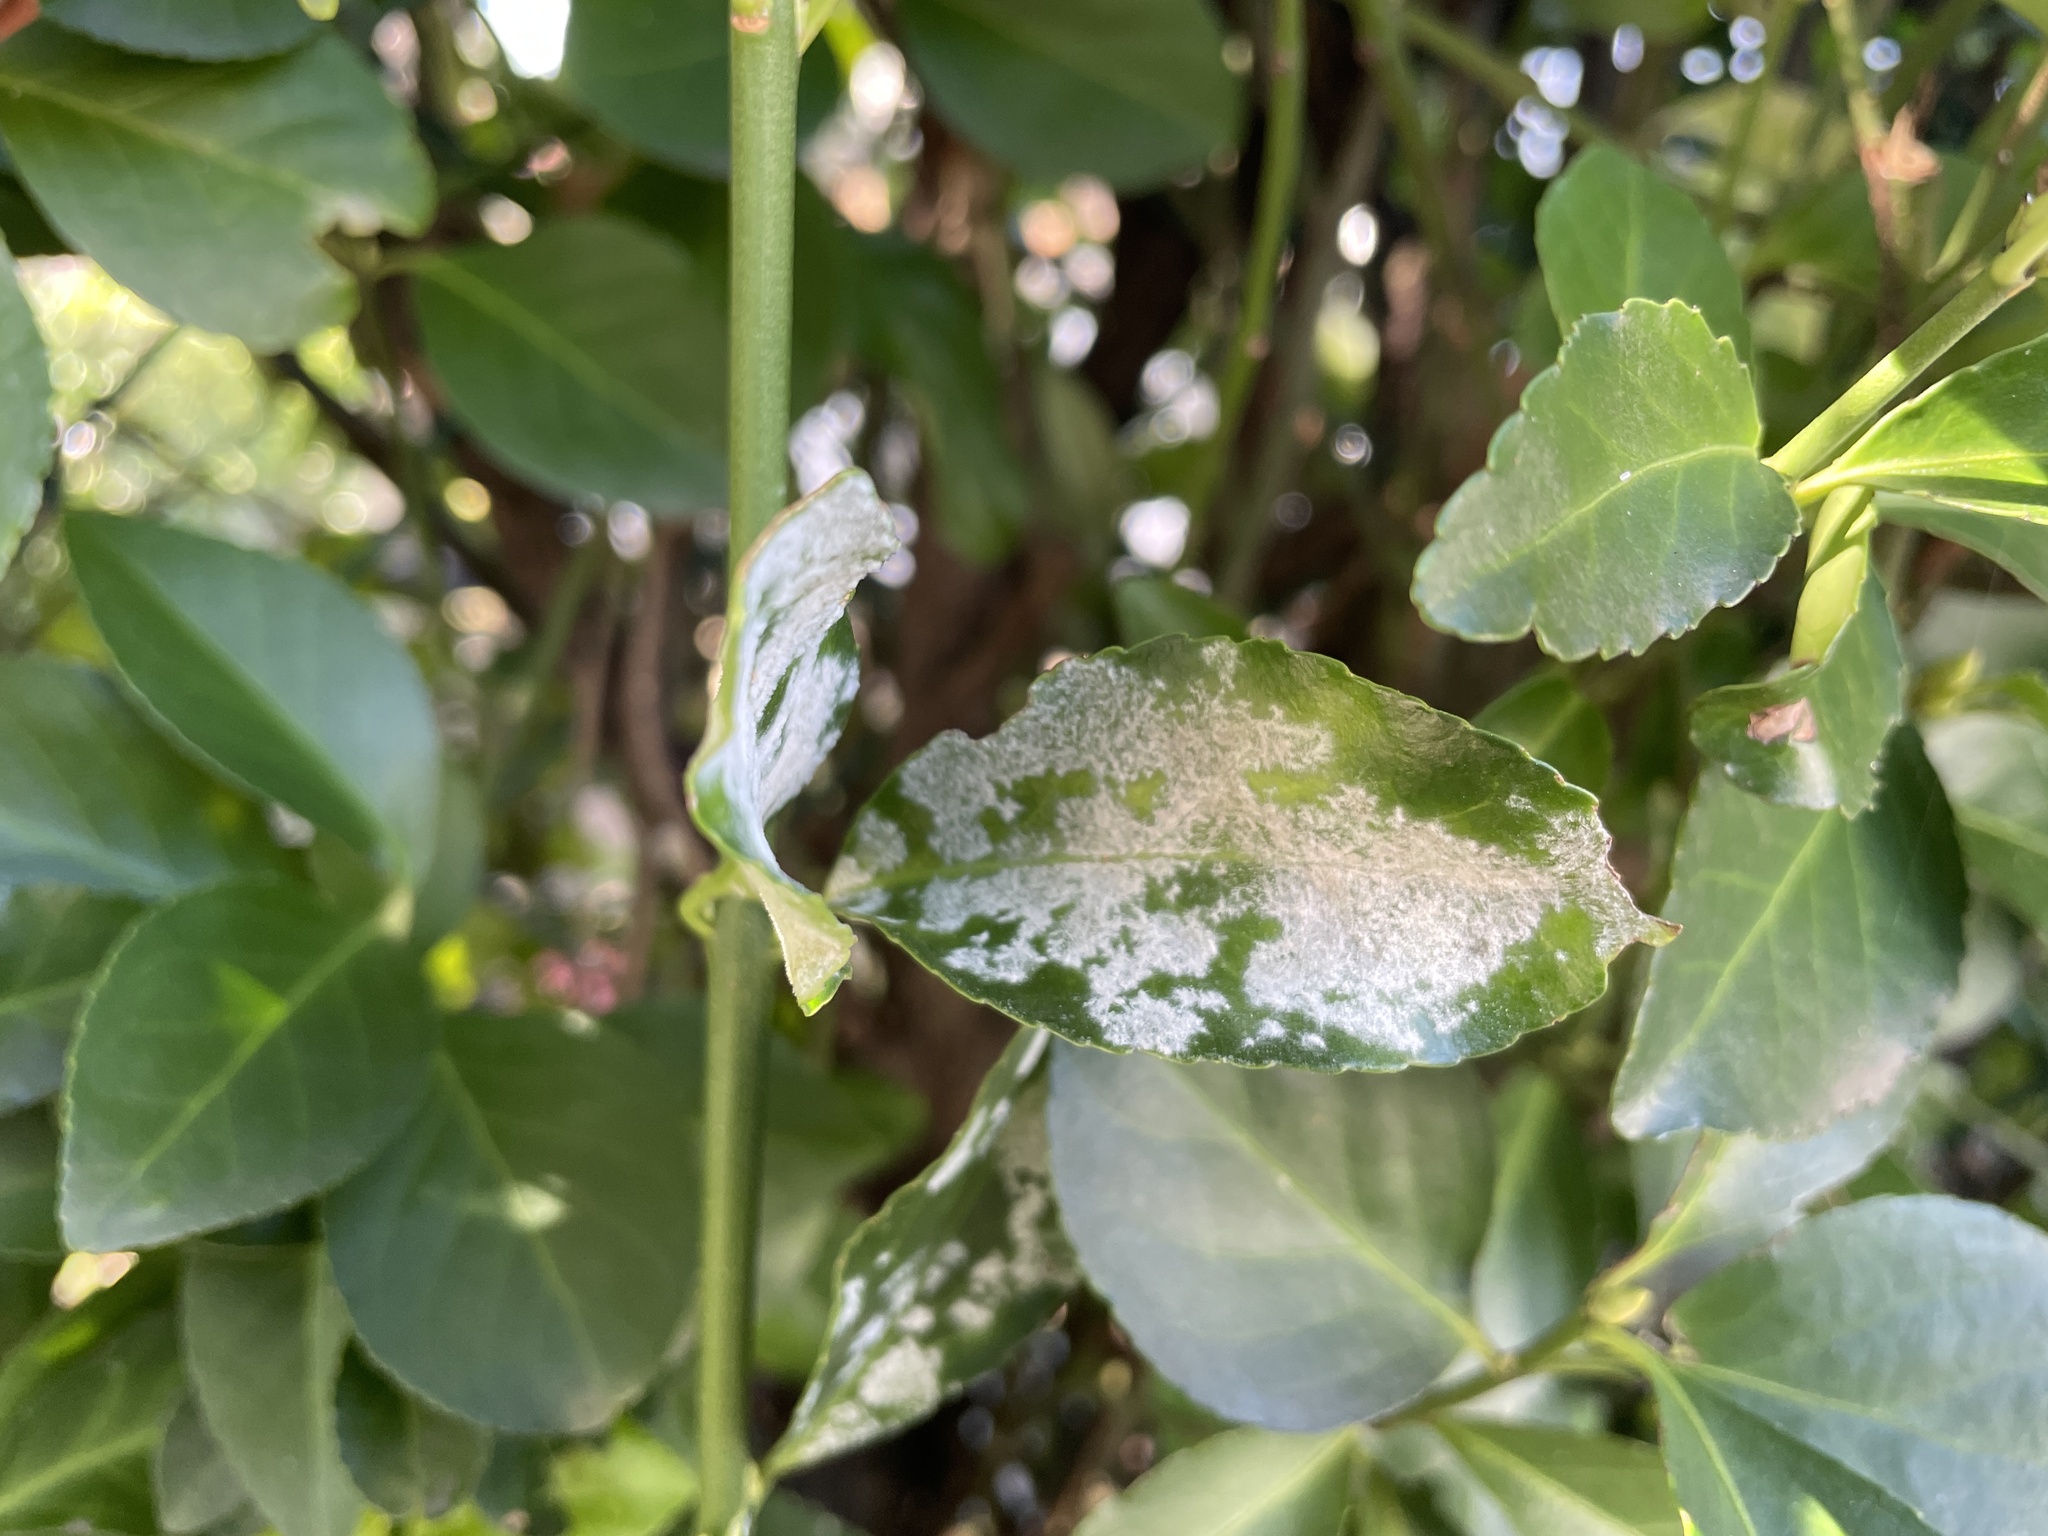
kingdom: Fungi
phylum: Ascomycota
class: Leotiomycetes
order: Helotiales
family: Erysiphaceae
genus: Erysiphe
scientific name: Erysiphe euonymicola
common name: Spindletree mildew
